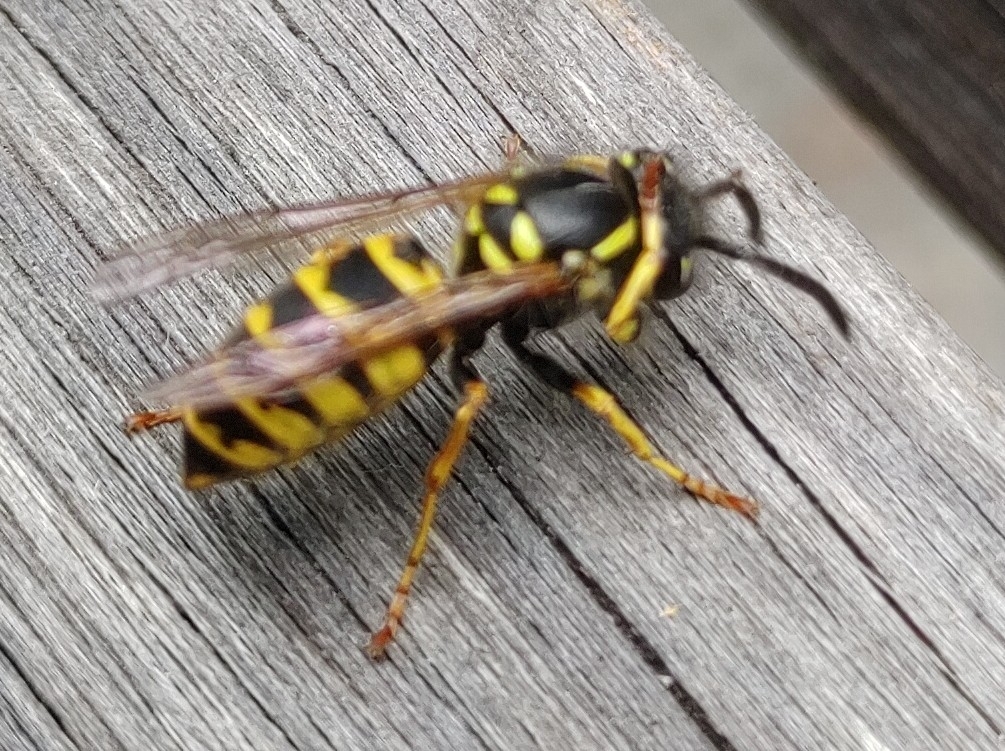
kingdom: Animalia
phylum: Arthropoda
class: Insecta
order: Hymenoptera
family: Vespidae
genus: Vespula
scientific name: Vespula vulgaris
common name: Common wasp
